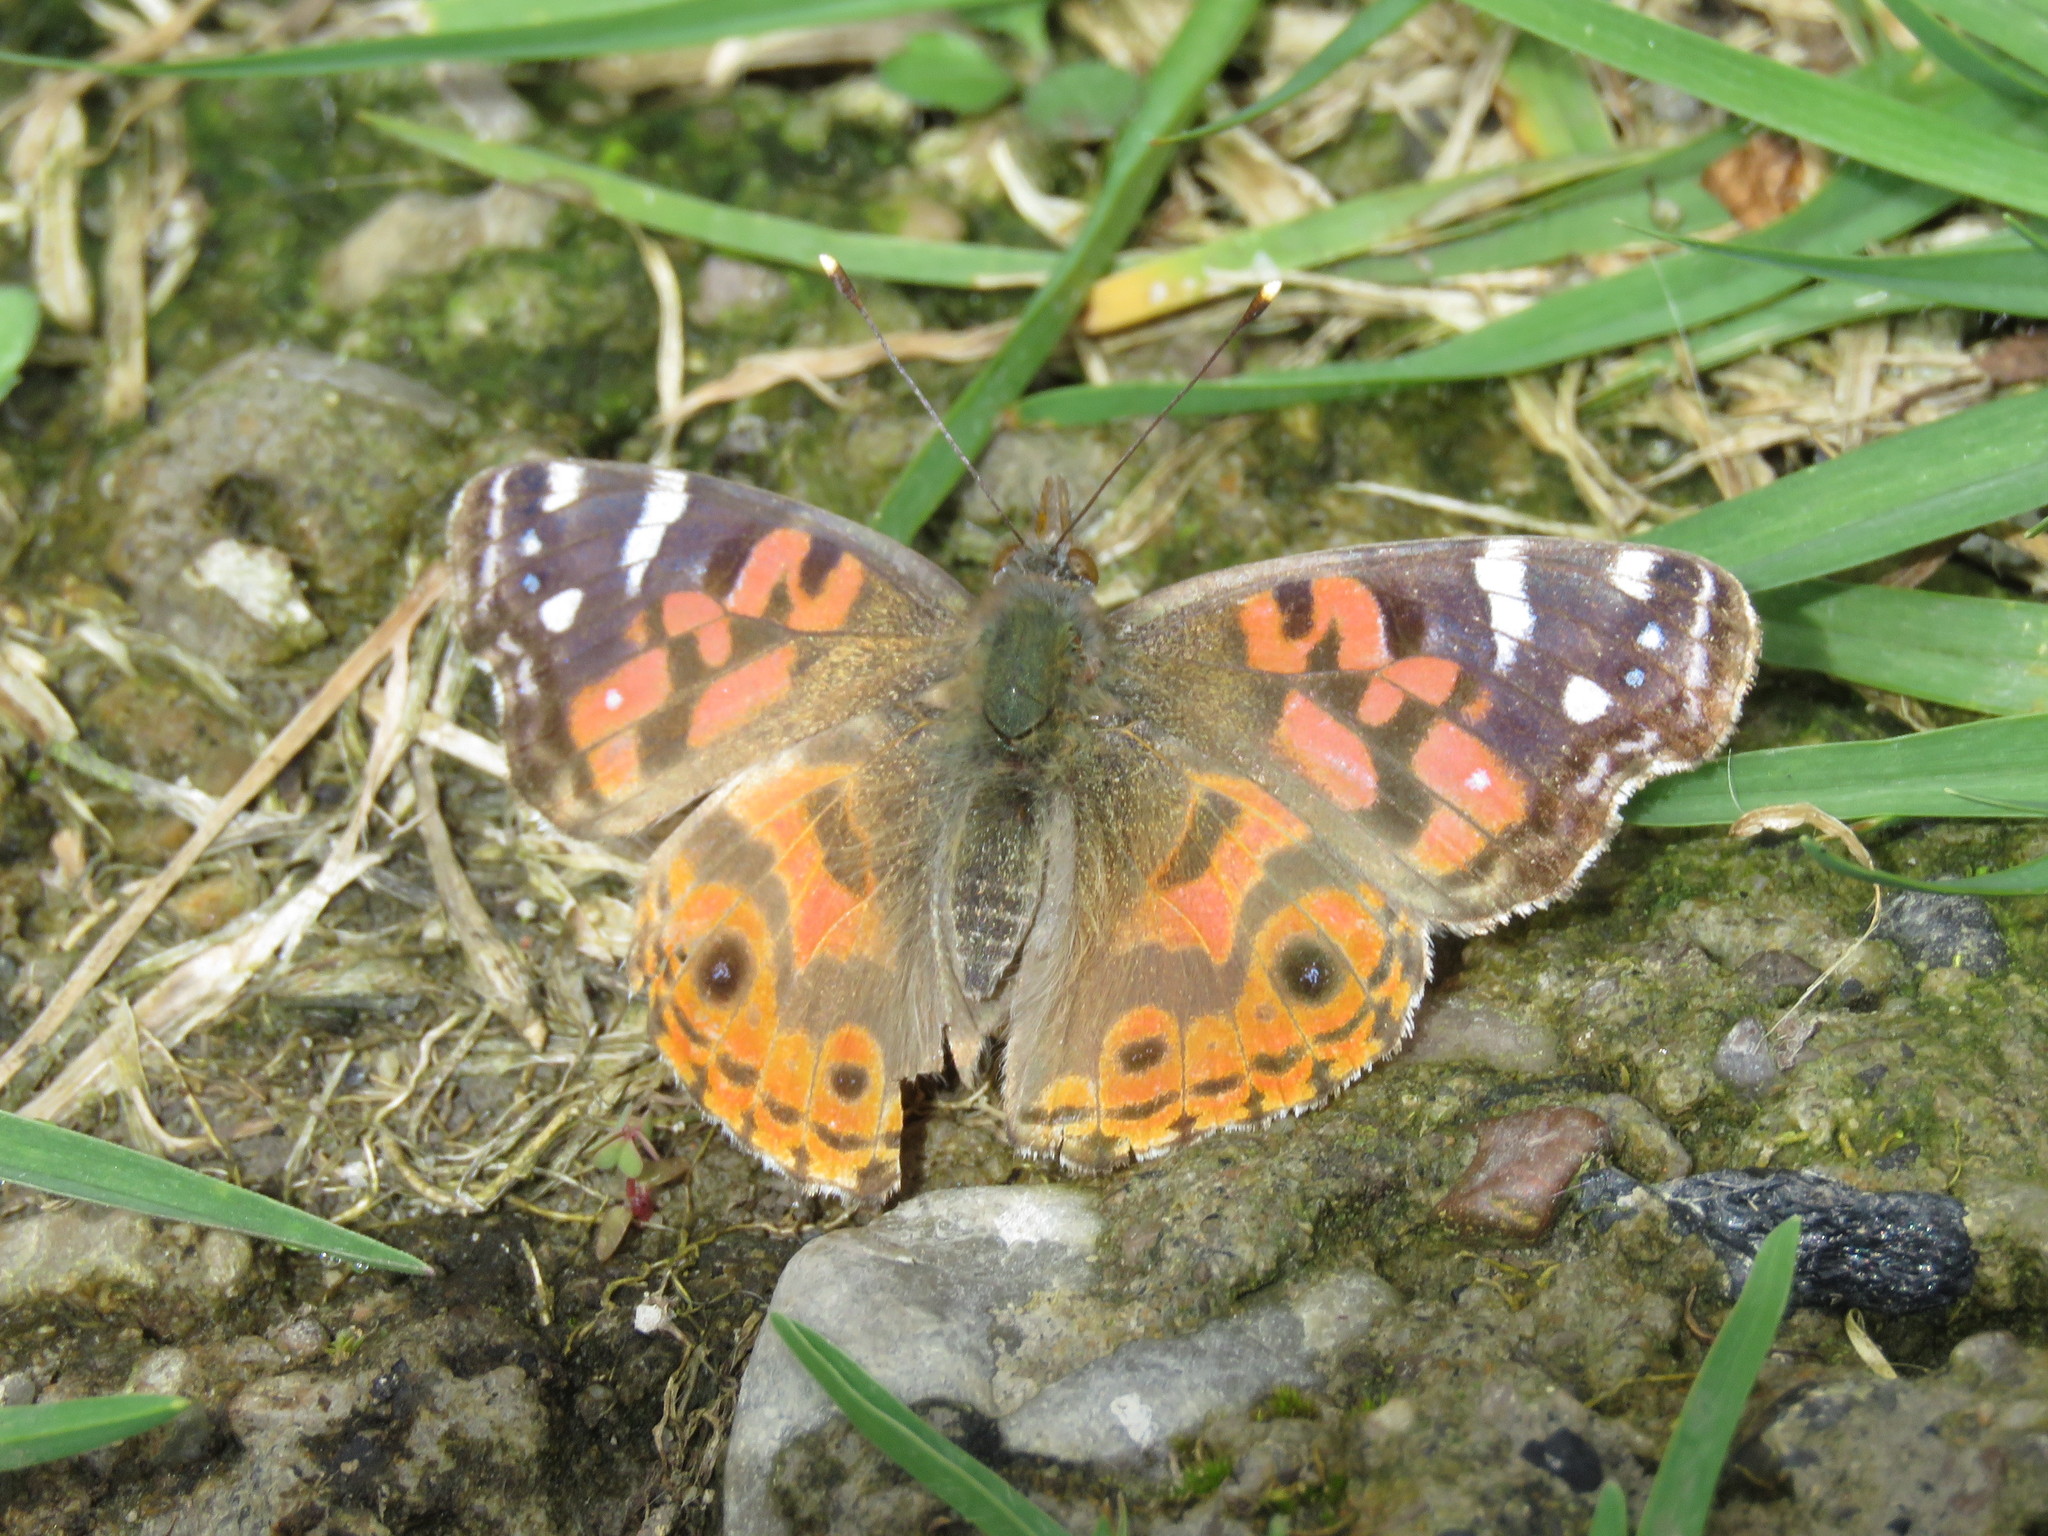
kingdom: Animalia
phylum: Arthropoda
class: Insecta
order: Lepidoptera
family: Nymphalidae
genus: Vanessa
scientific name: Vanessa braziliensis
